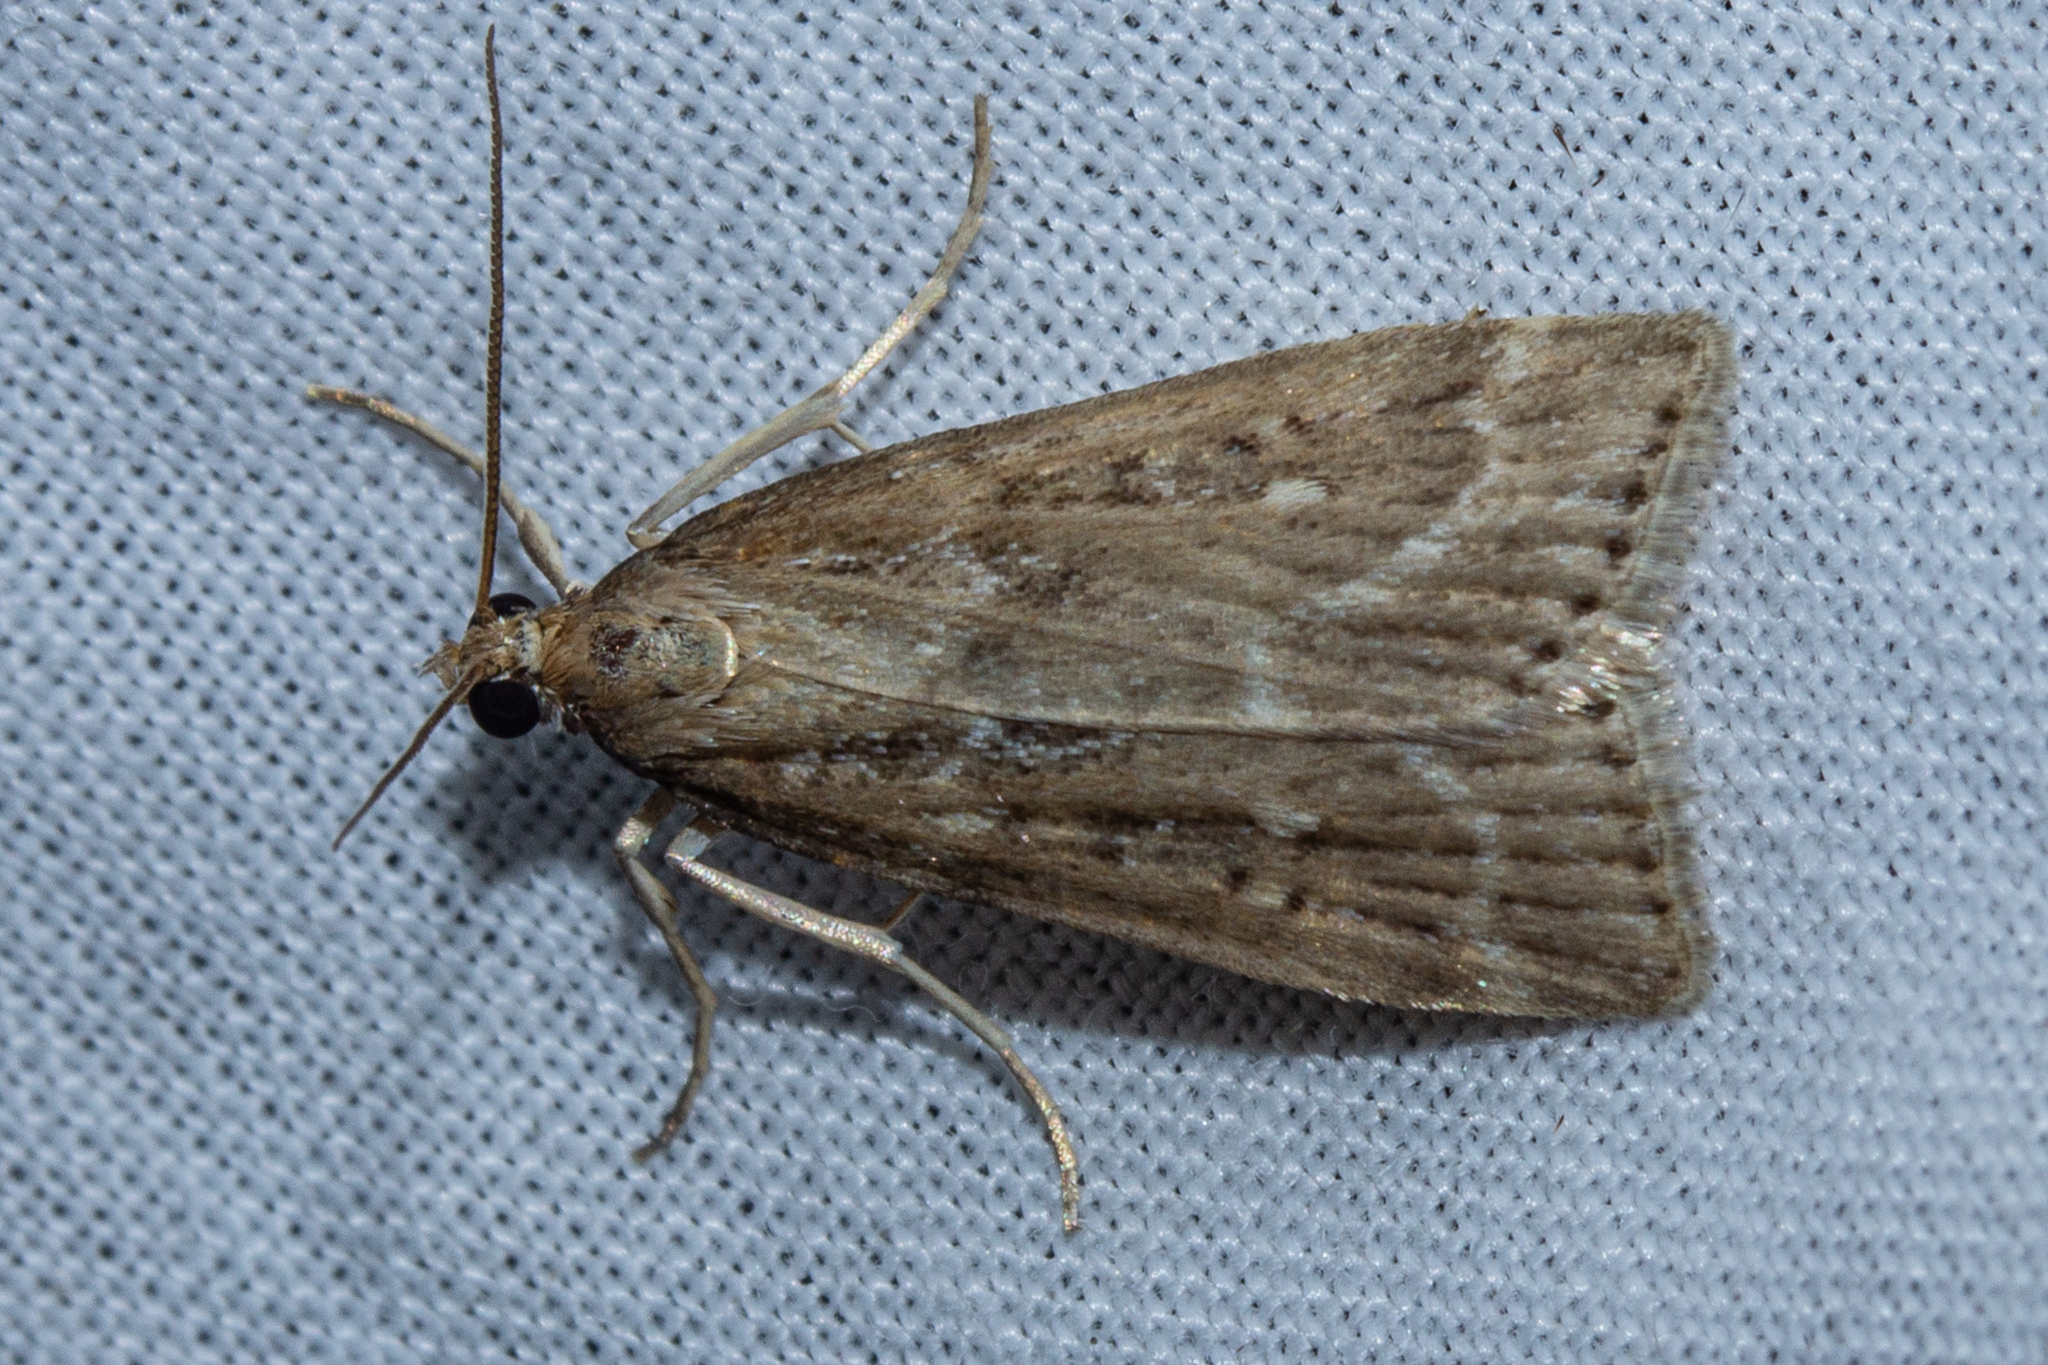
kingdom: Animalia
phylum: Arthropoda
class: Insecta
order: Lepidoptera
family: Crambidae
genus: Eudonia
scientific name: Eudonia octophora
